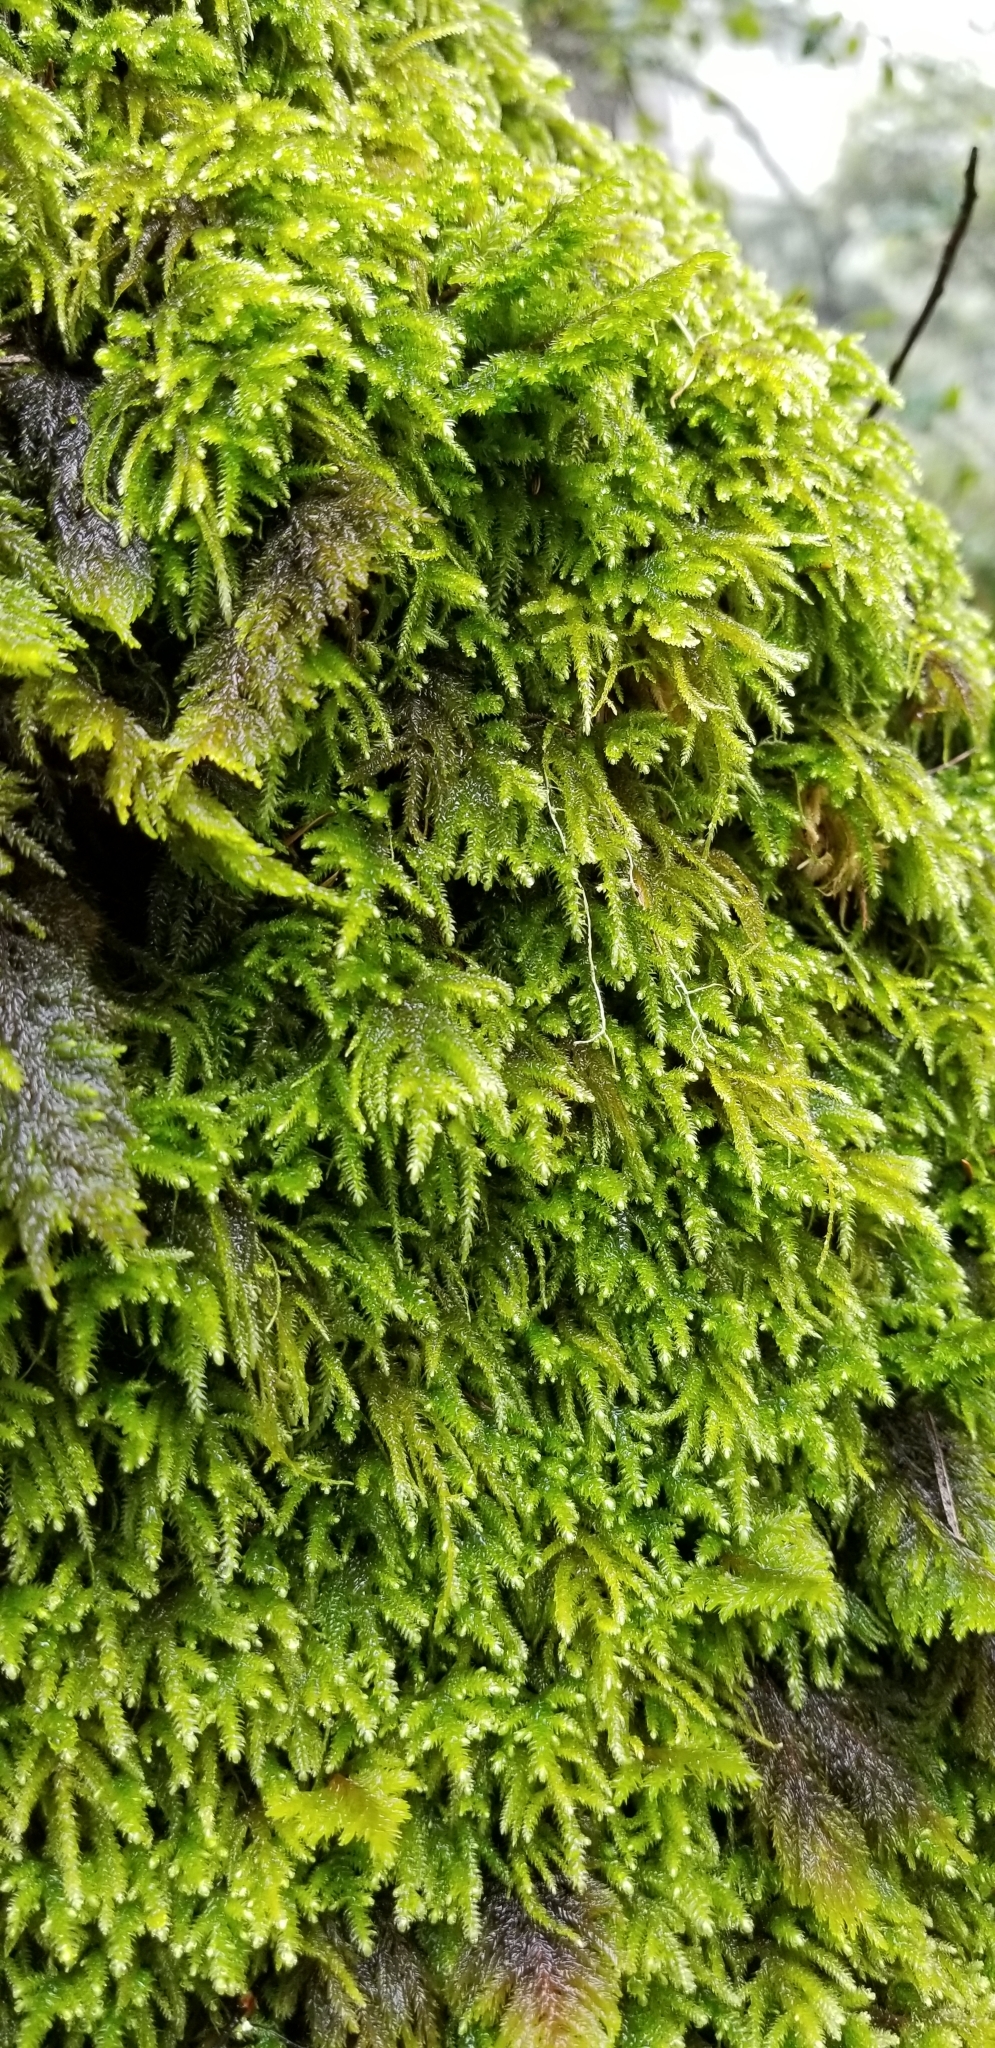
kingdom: Plantae
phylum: Bryophyta
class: Bryopsida
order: Hypnales
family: Cryphaeaceae
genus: Dendroalsia
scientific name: Dendroalsia abietina
